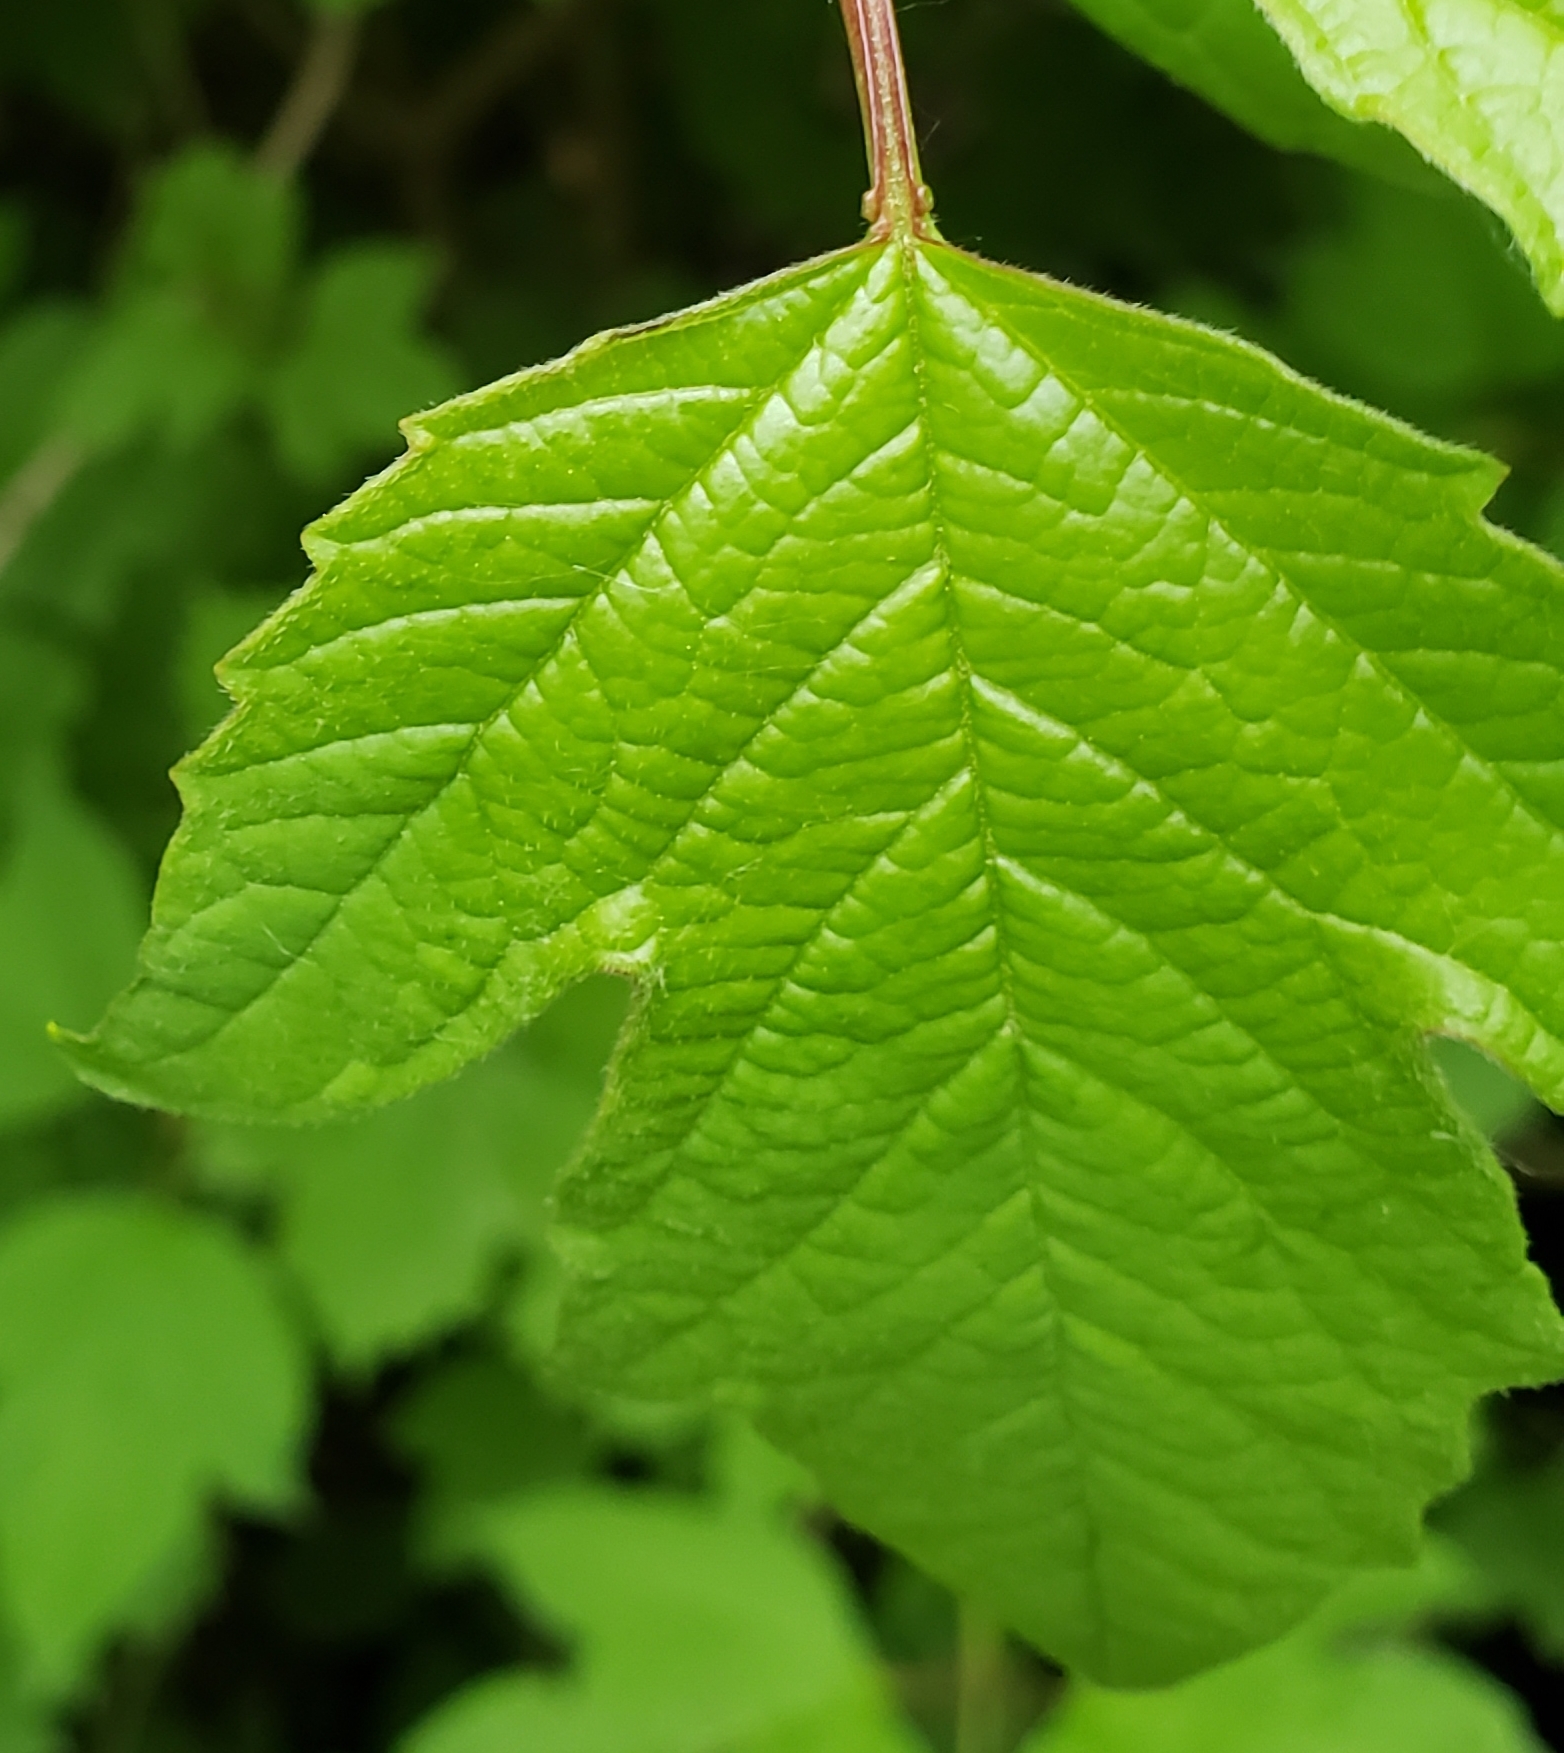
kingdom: Plantae
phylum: Tracheophyta
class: Magnoliopsida
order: Dipsacales
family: Viburnaceae
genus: Viburnum
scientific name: Viburnum opulus
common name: Guelder-rose
